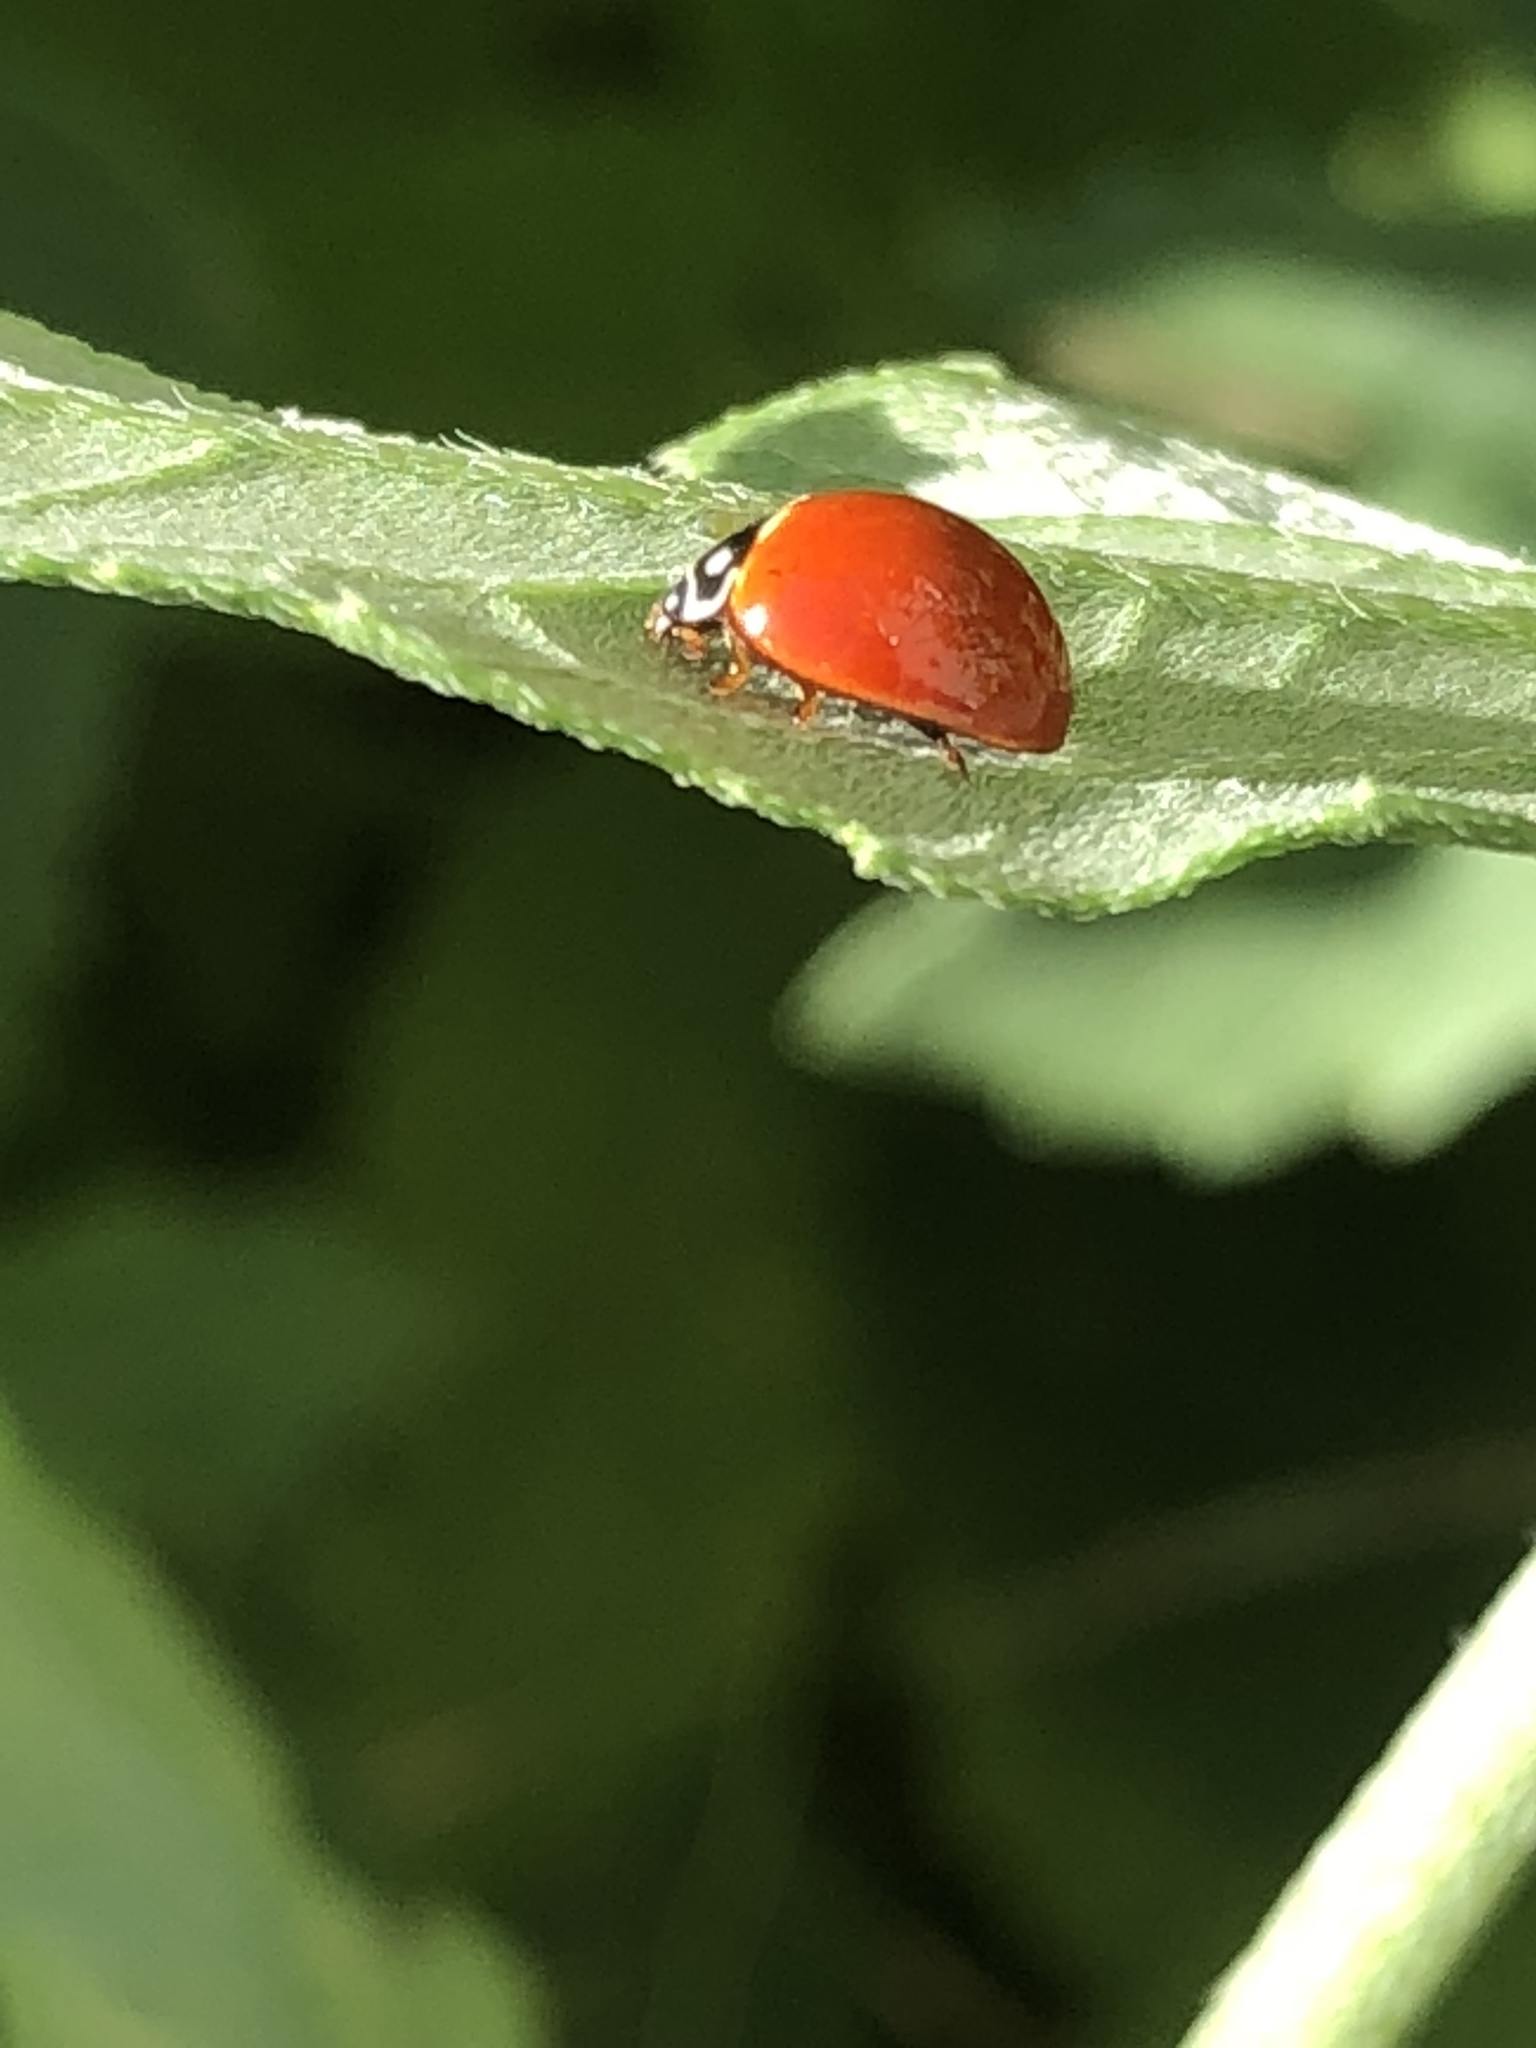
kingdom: Animalia
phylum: Arthropoda
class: Insecta
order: Coleoptera
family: Coccinellidae
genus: Cycloneda
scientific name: Cycloneda sanguinea
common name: Ladybird beetle
